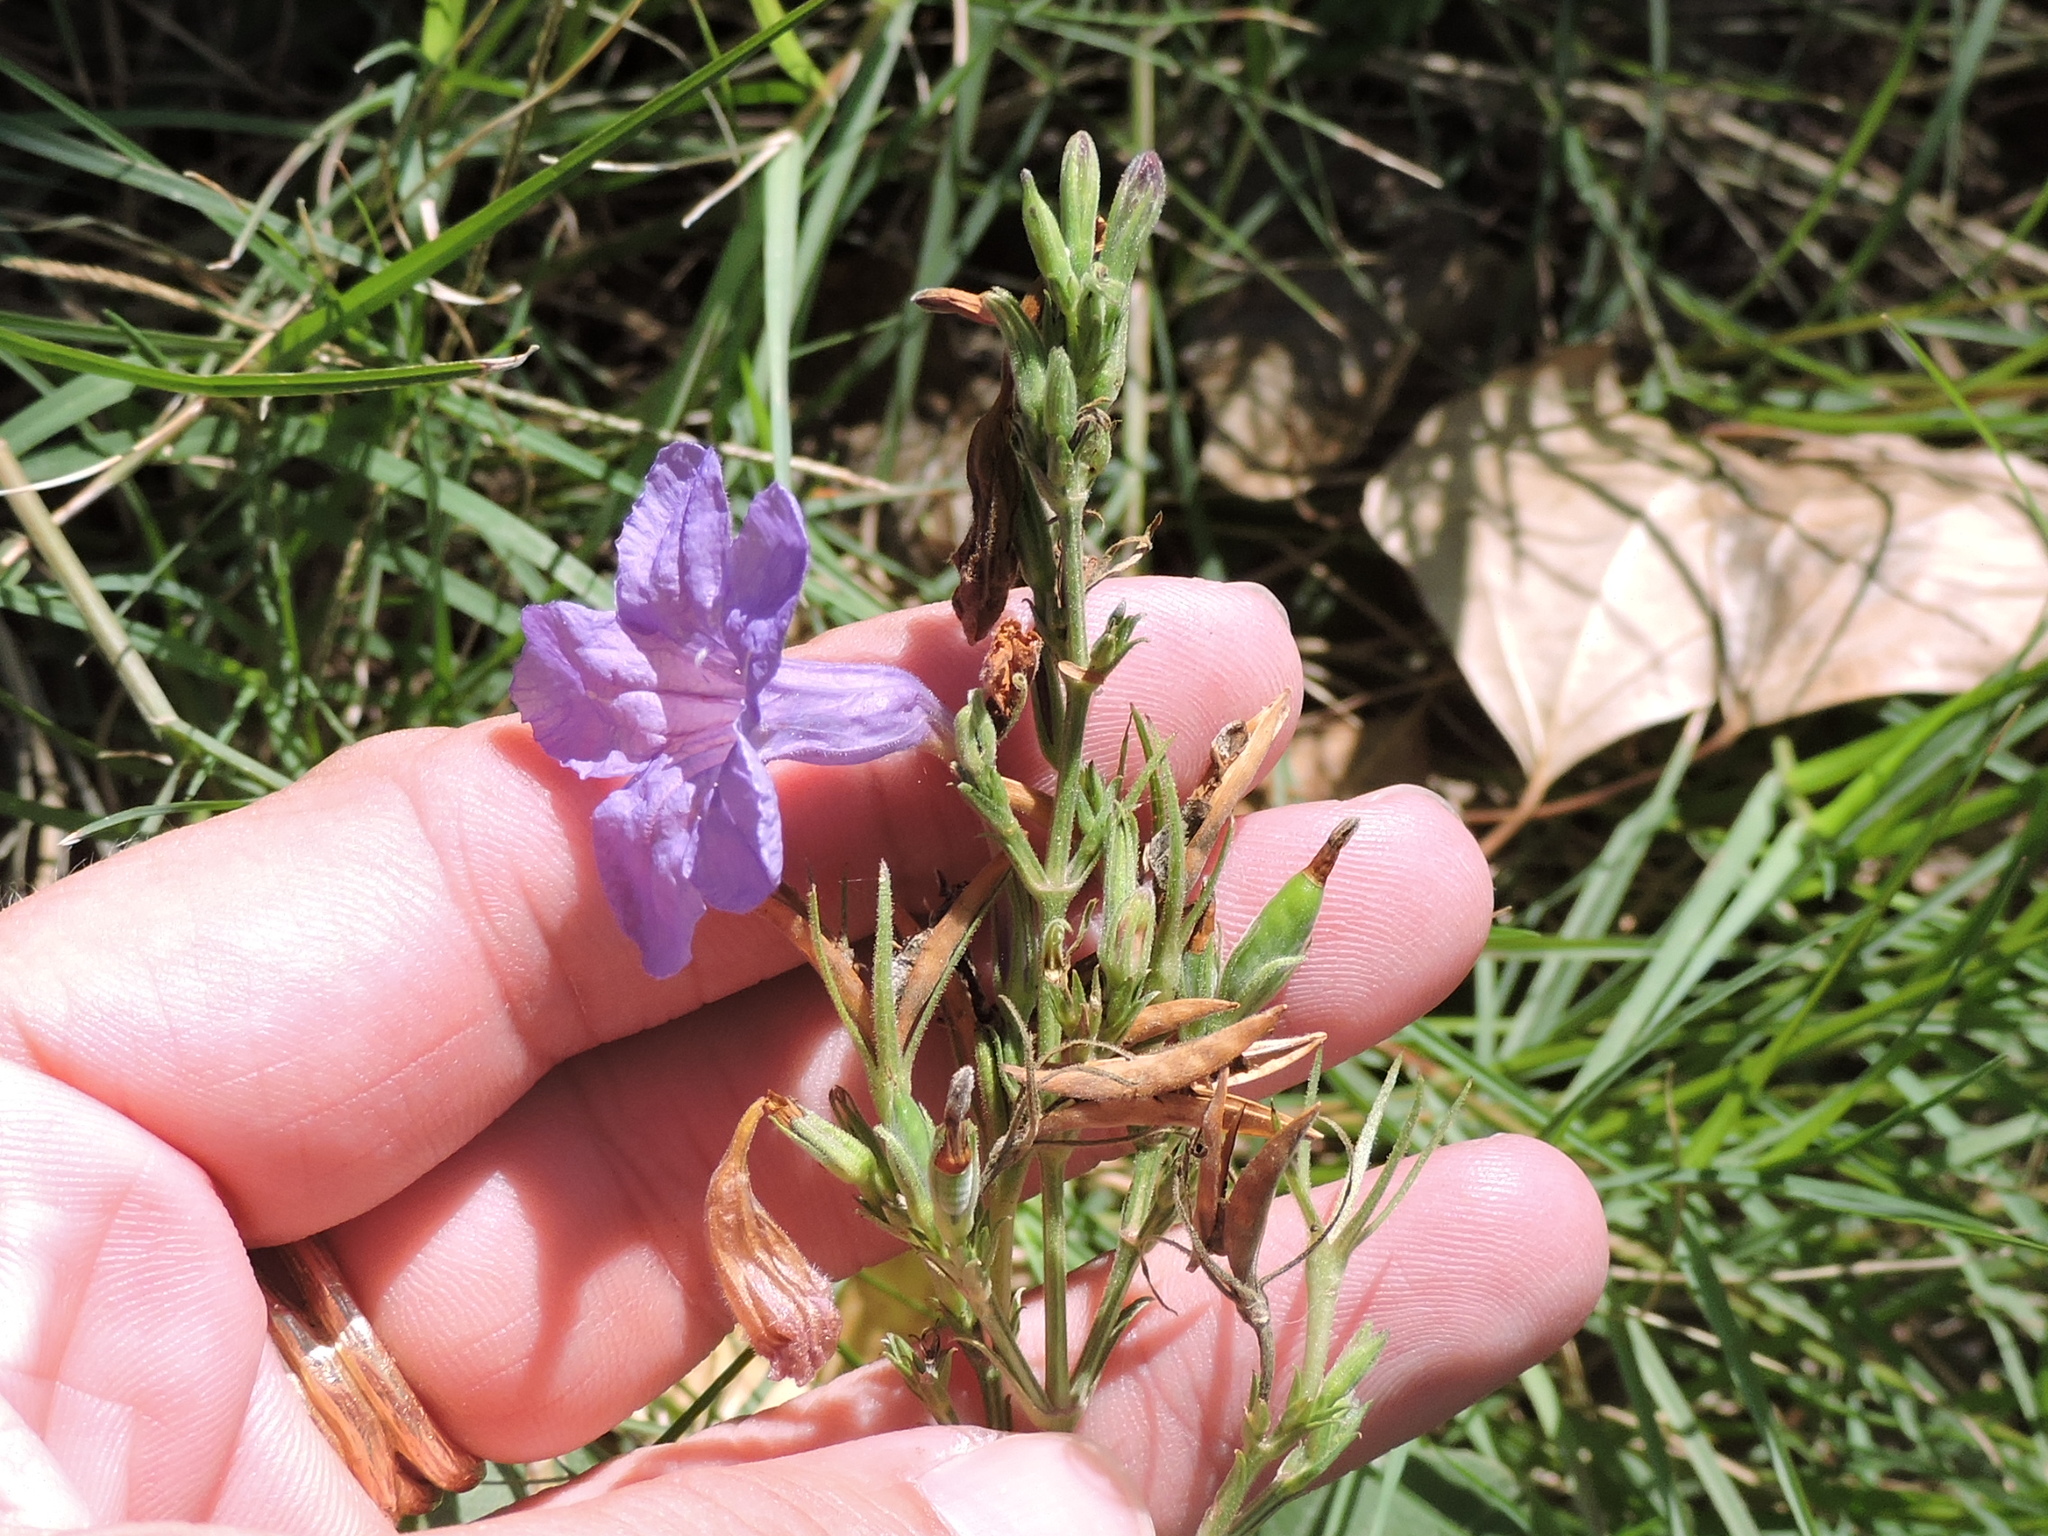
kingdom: Plantae
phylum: Tracheophyta
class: Magnoliopsida
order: Lamiales
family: Acanthaceae
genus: Ruellia
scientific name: Ruellia ciliatiflora
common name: Hairyflower wild petunia
